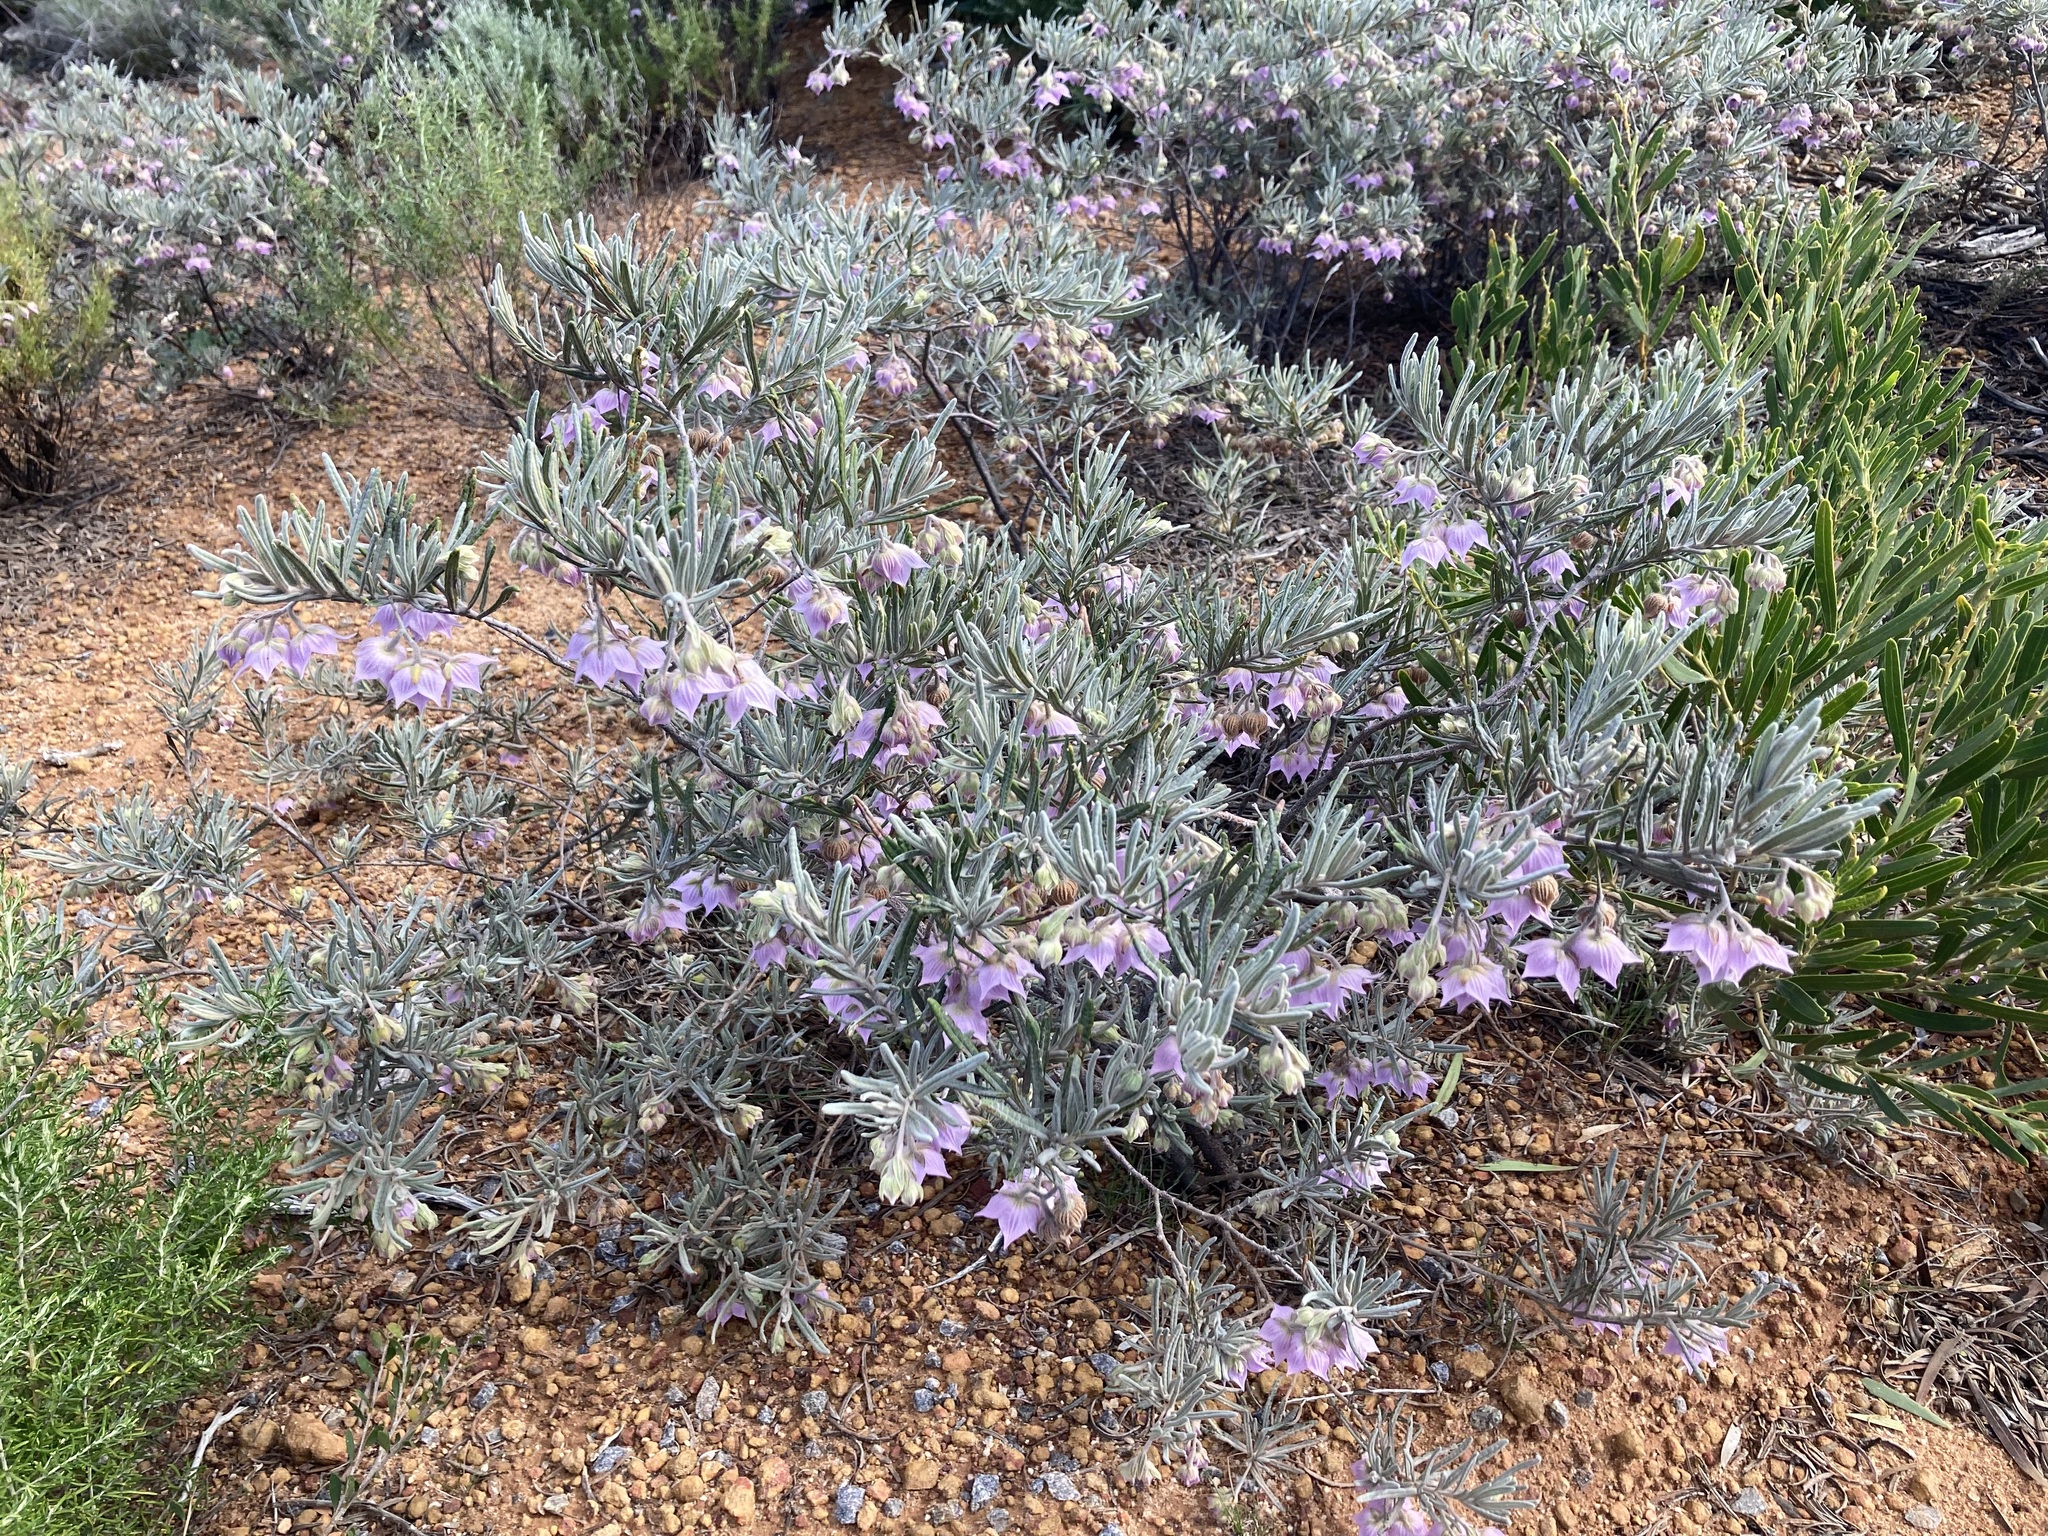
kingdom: Plantae
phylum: Tracheophyta
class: Magnoliopsida
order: Malvales
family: Malvaceae
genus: Guichenotia
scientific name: Guichenotia intermedia
